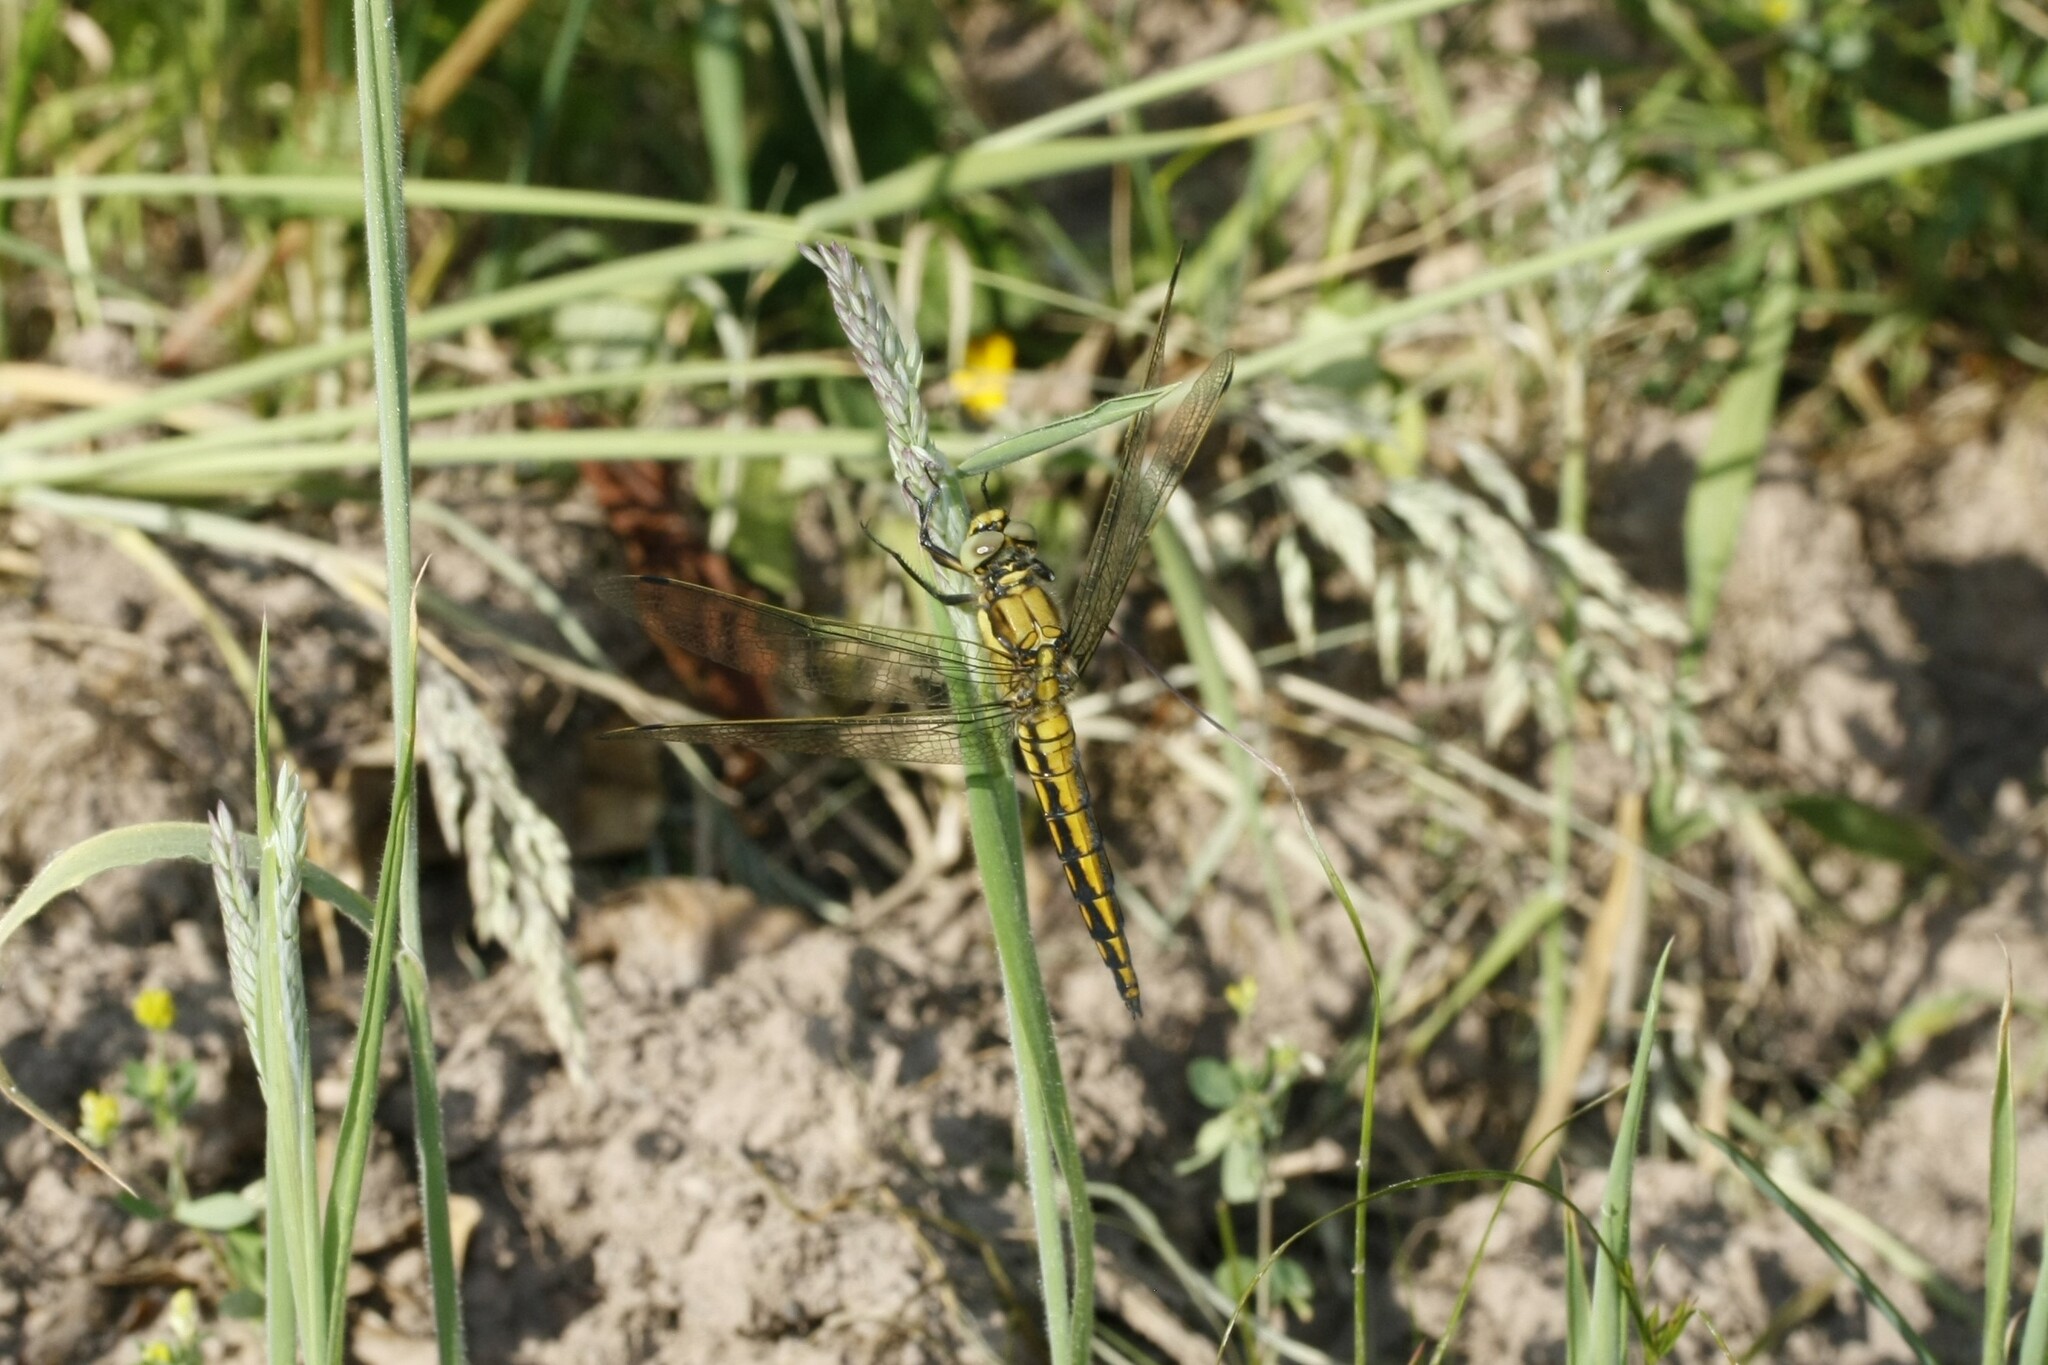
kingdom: Animalia
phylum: Arthropoda
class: Insecta
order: Odonata
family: Libellulidae
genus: Orthetrum
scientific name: Orthetrum cancellatum
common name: Black-tailed skimmer
